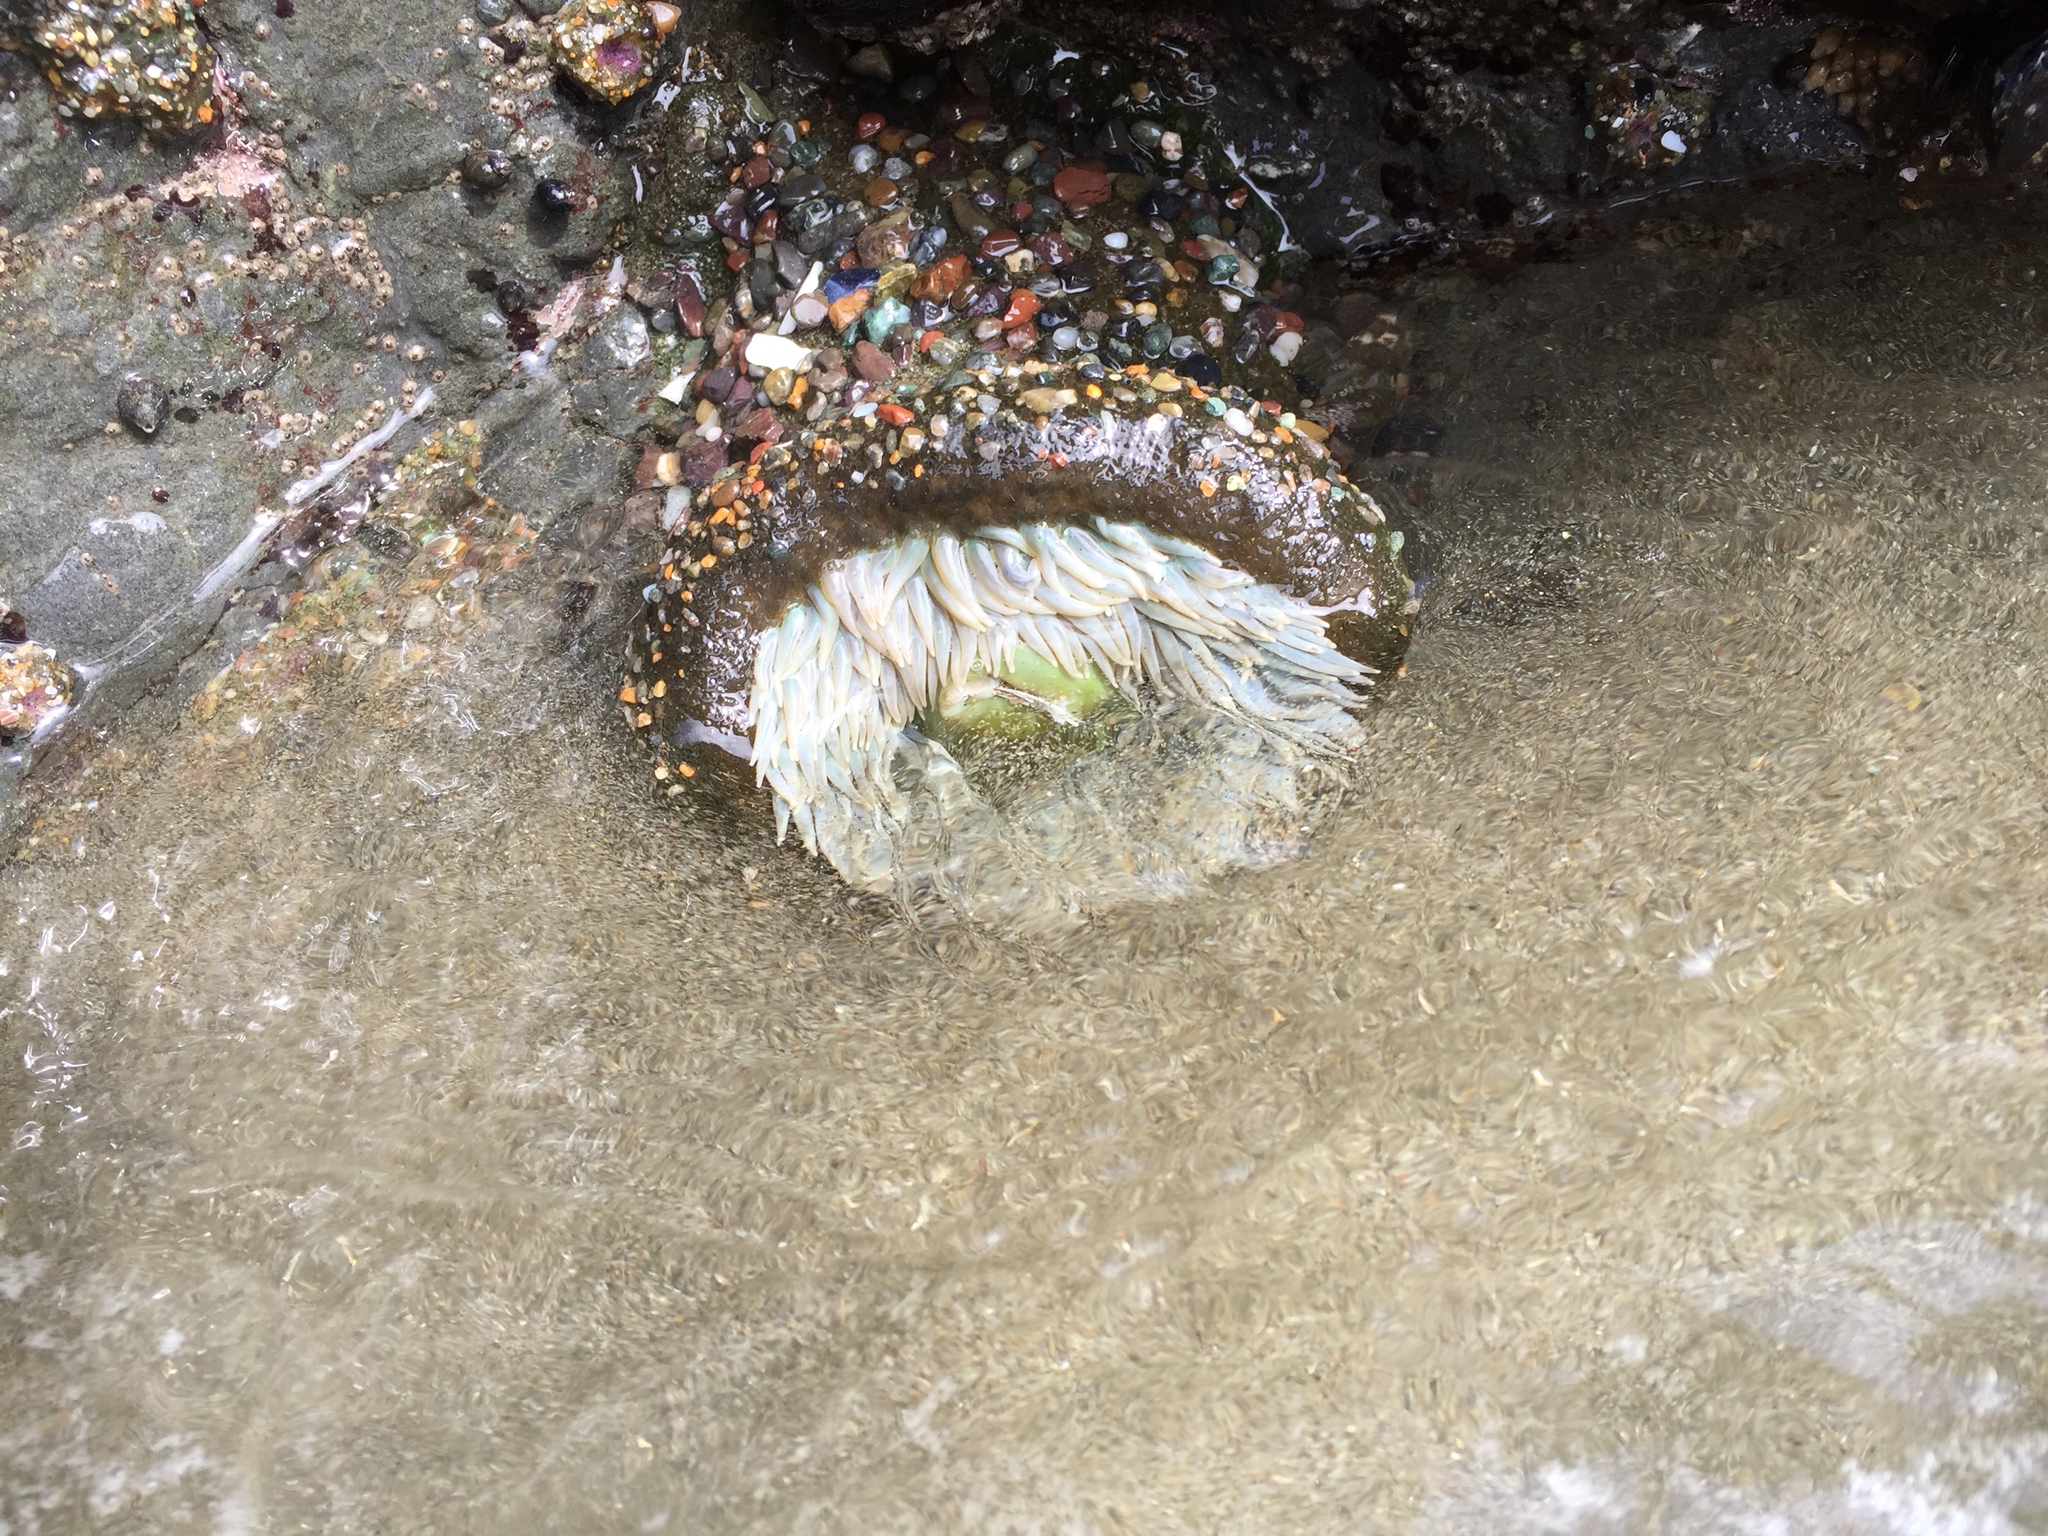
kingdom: Animalia
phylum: Cnidaria
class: Anthozoa
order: Actiniaria
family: Actiniidae
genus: Anthopleura
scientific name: Anthopleura xanthogrammica
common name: Giant green anemone
